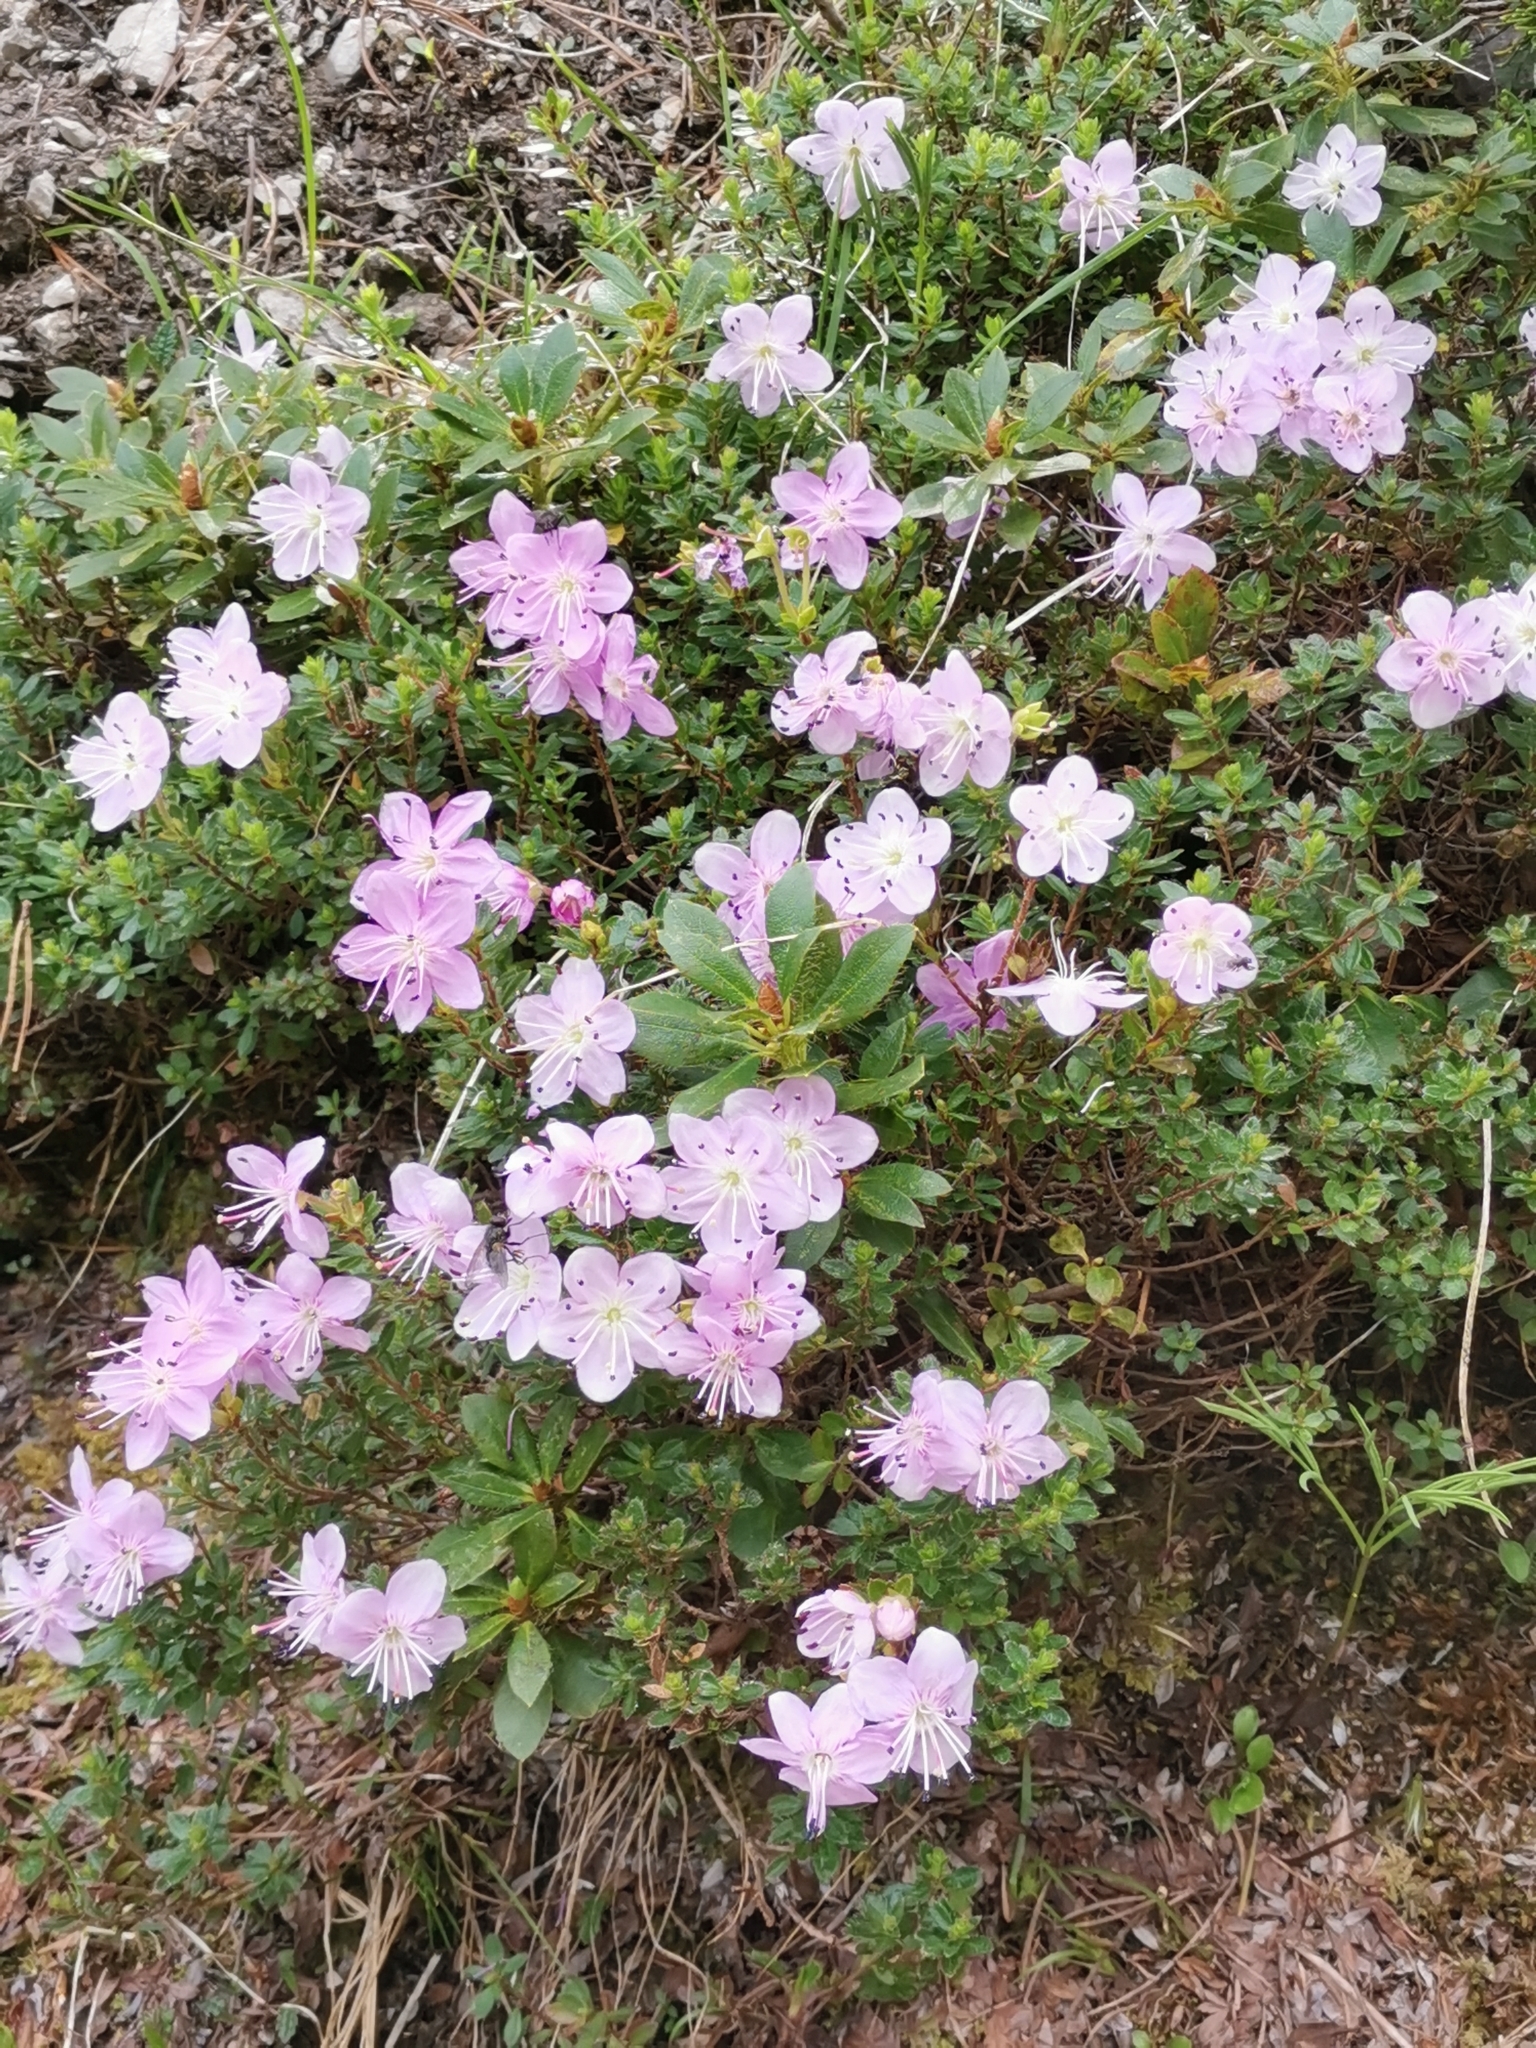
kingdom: Plantae
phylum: Tracheophyta
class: Magnoliopsida
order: Ericales
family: Ericaceae
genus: Rhodothamnus
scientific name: Rhodothamnus chamaecistus
